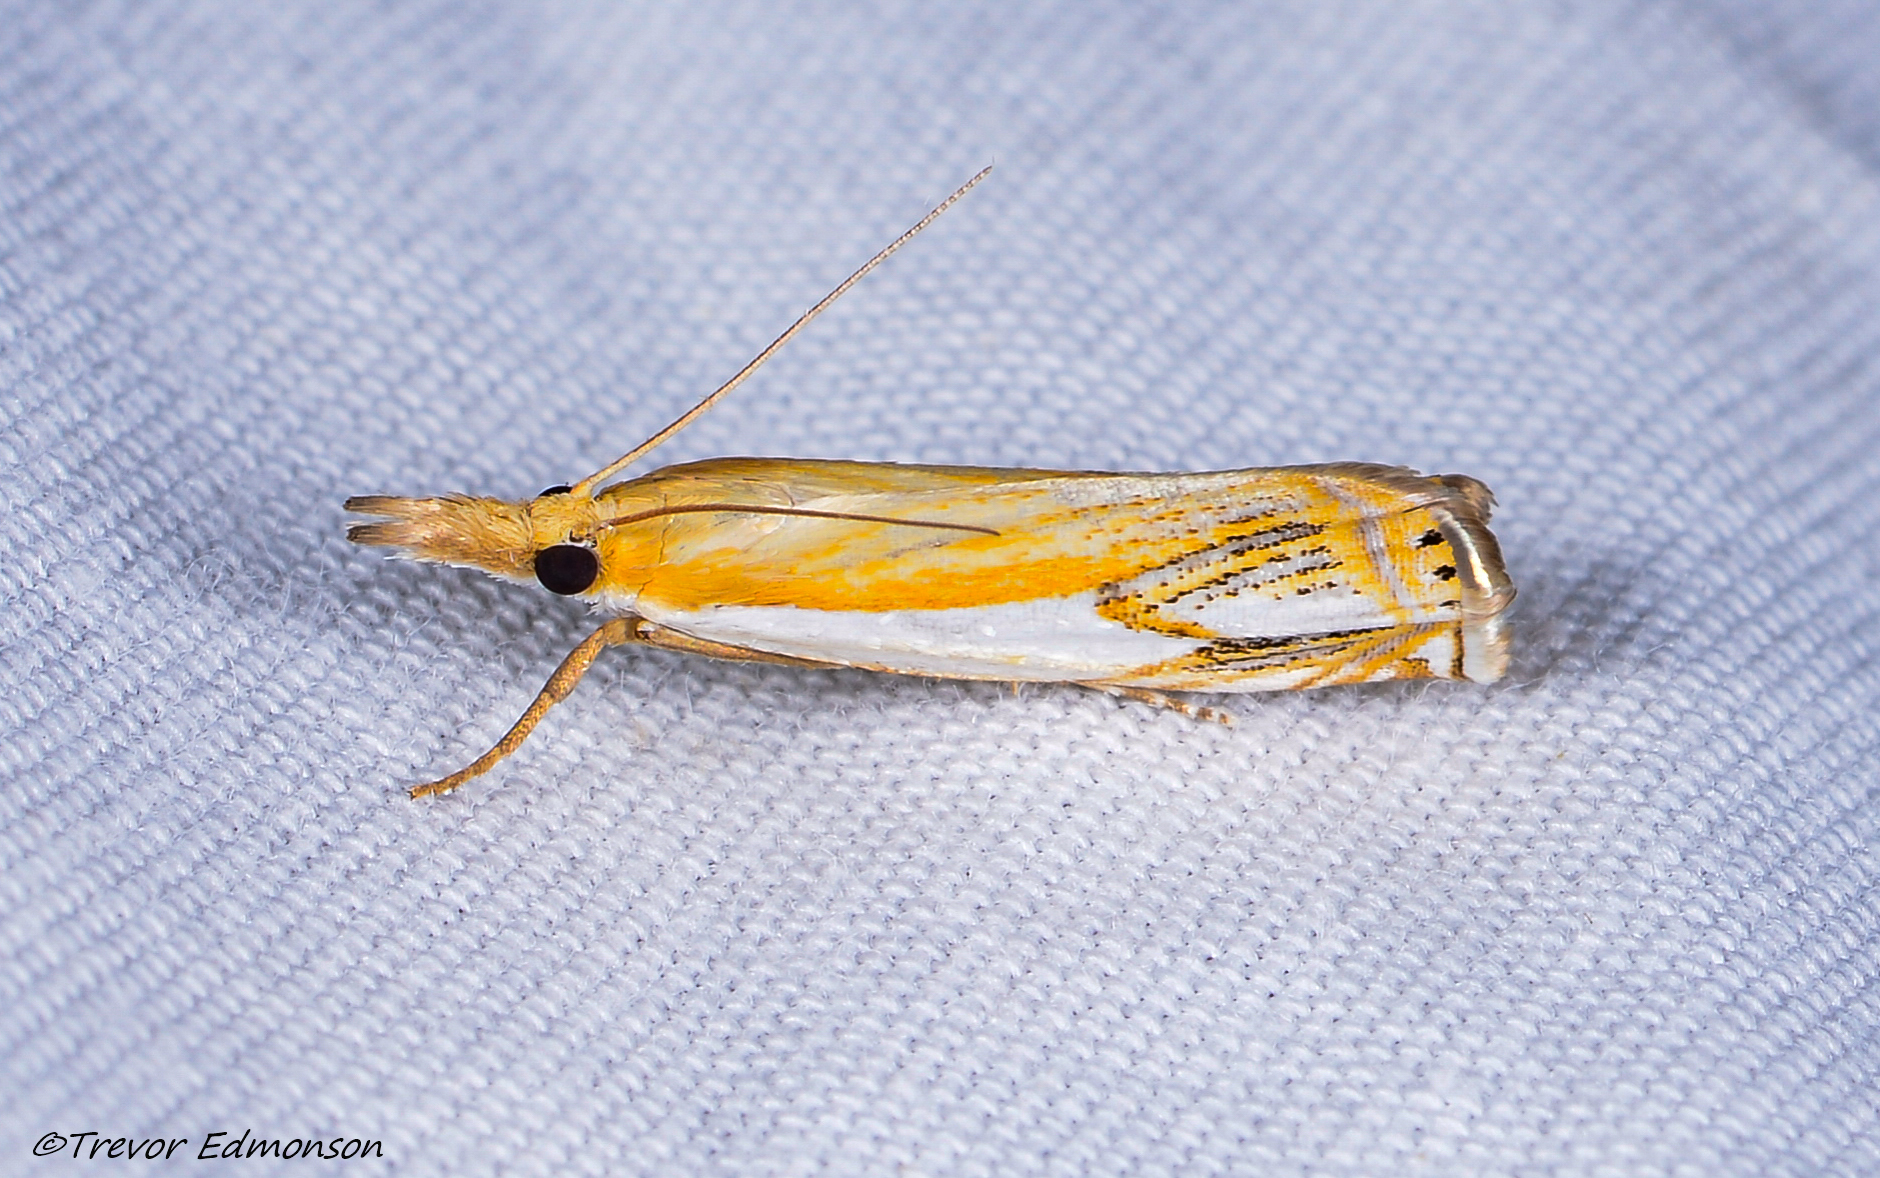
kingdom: Animalia
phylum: Arthropoda
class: Insecta
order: Lepidoptera
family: Crambidae
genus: Crambus
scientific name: Crambus agitatellus
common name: Double-banded grass-veneer
